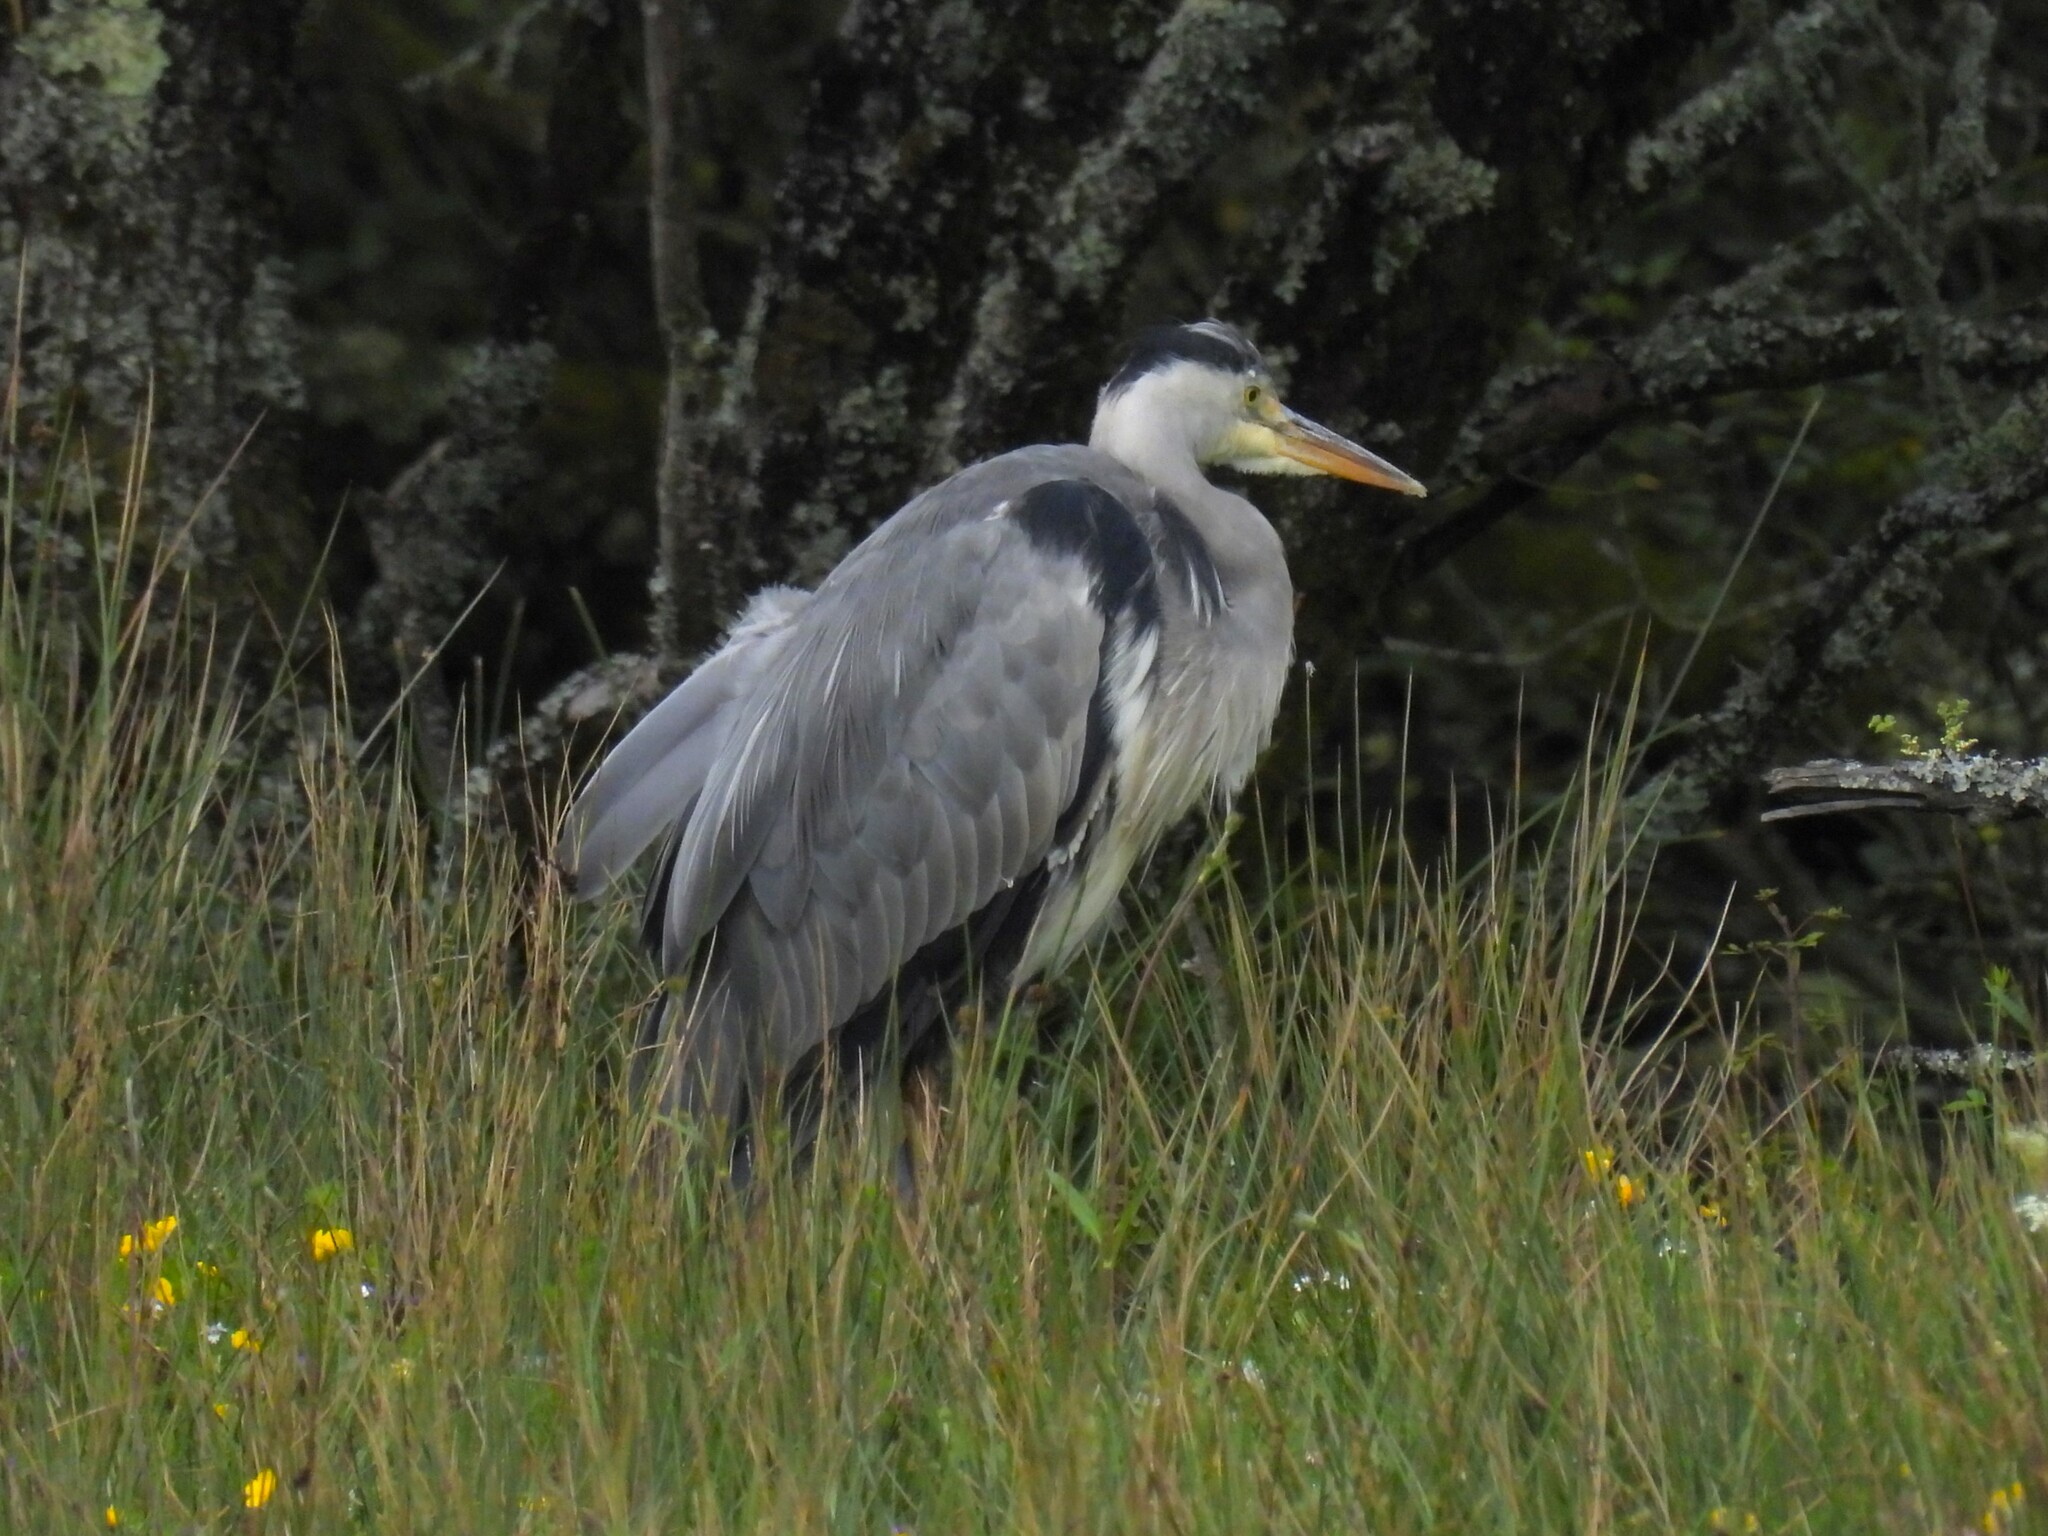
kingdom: Animalia
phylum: Chordata
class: Aves
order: Pelecaniformes
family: Ardeidae
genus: Ardea
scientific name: Ardea cinerea
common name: Grey heron
